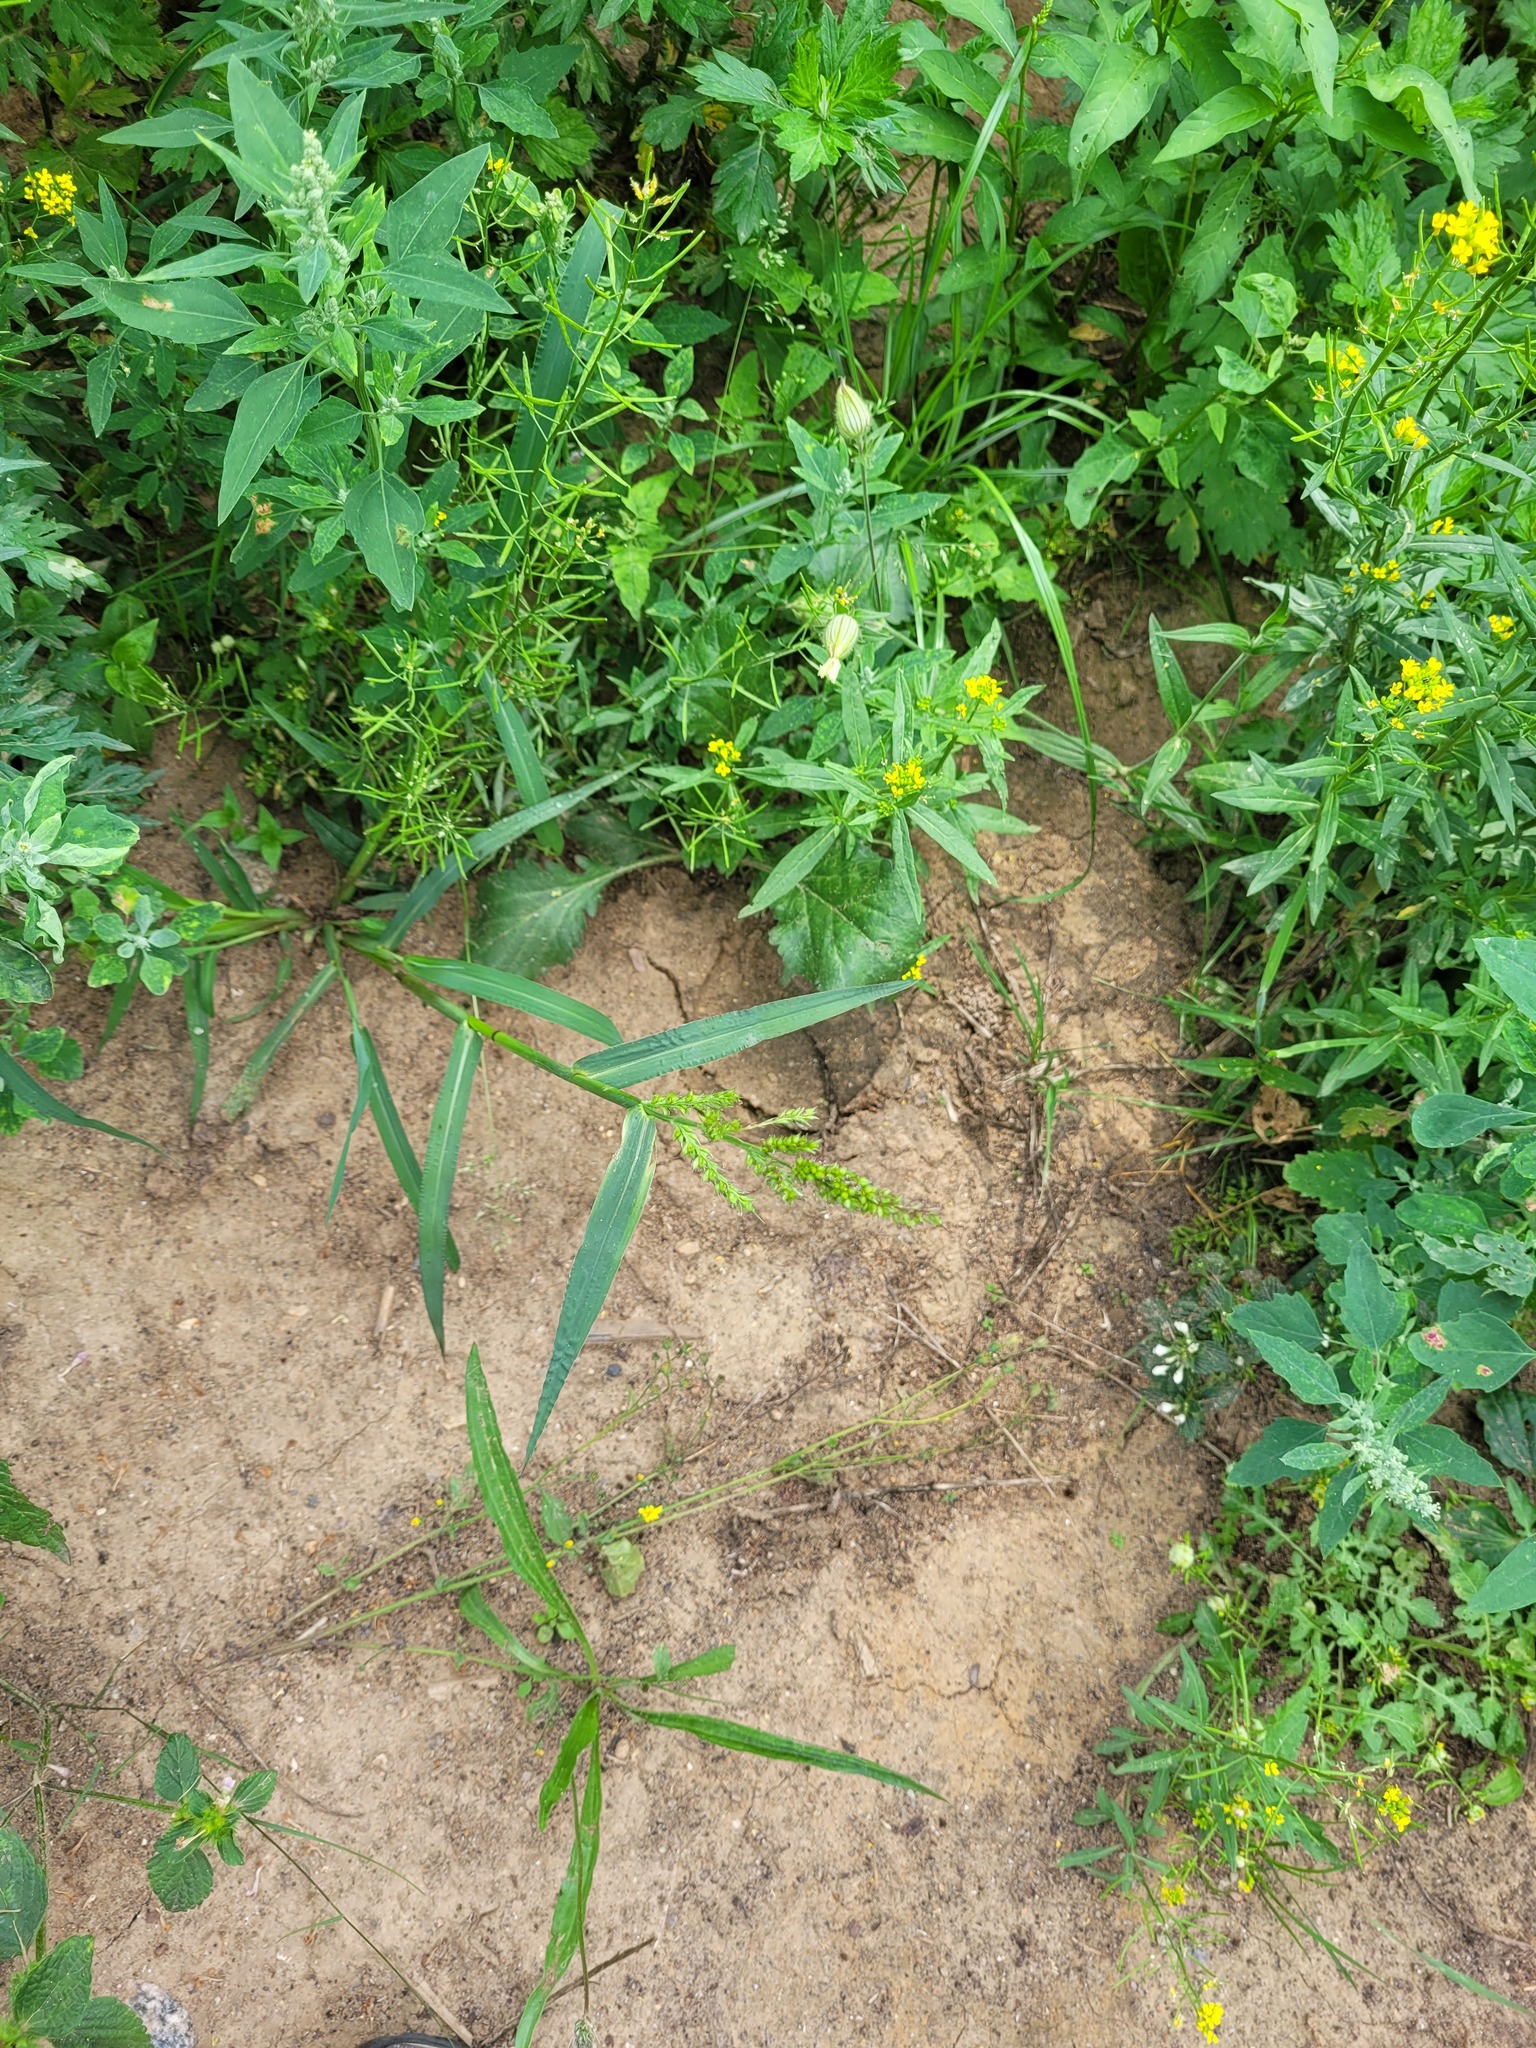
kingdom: Plantae
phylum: Tracheophyta
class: Liliopsida
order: Poales
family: Poaceae
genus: Echinochloa
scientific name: Echinochloa crus-galli
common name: Cockspur
